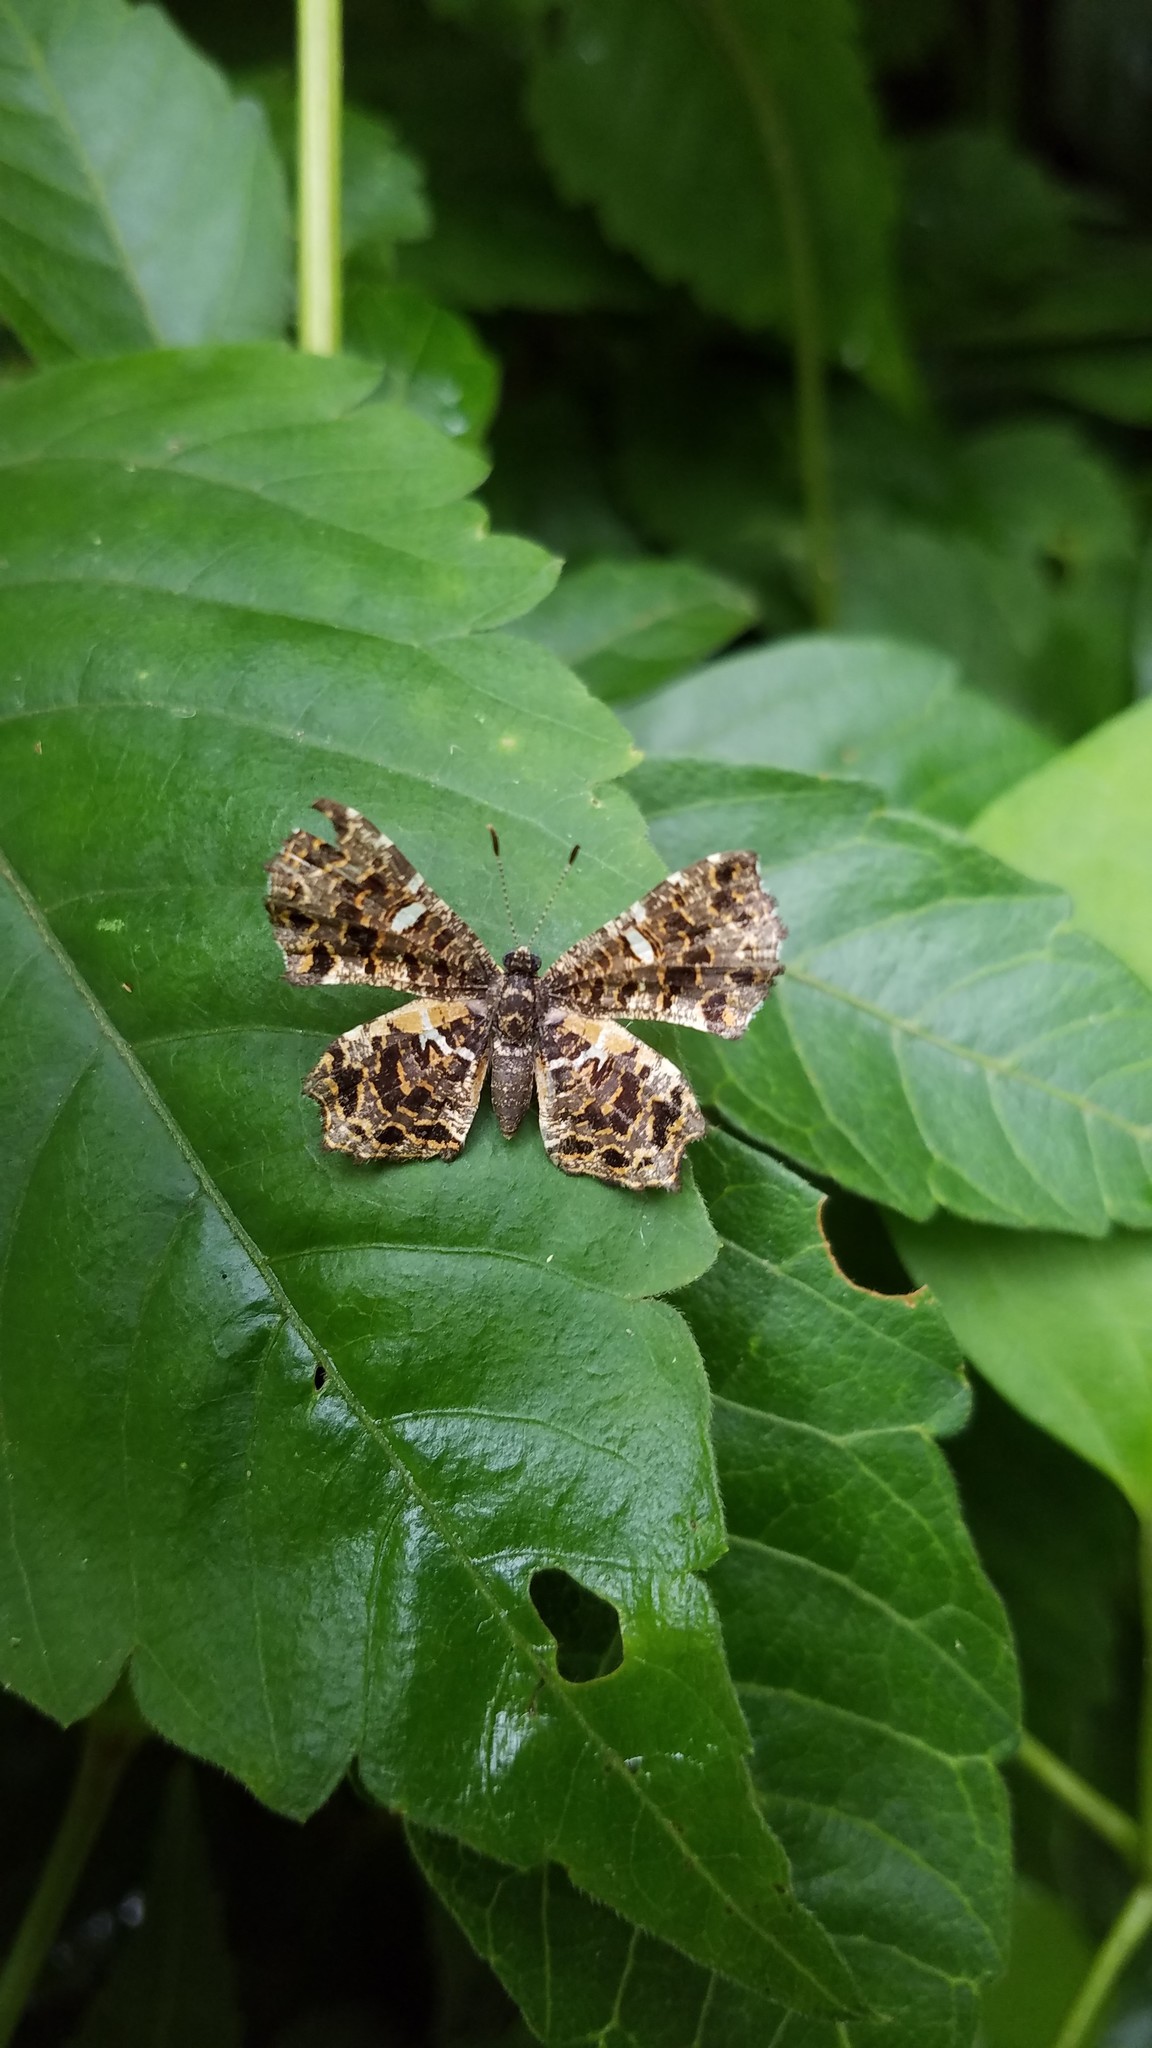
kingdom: Animalia
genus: Calydna
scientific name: Calydna sturnula
